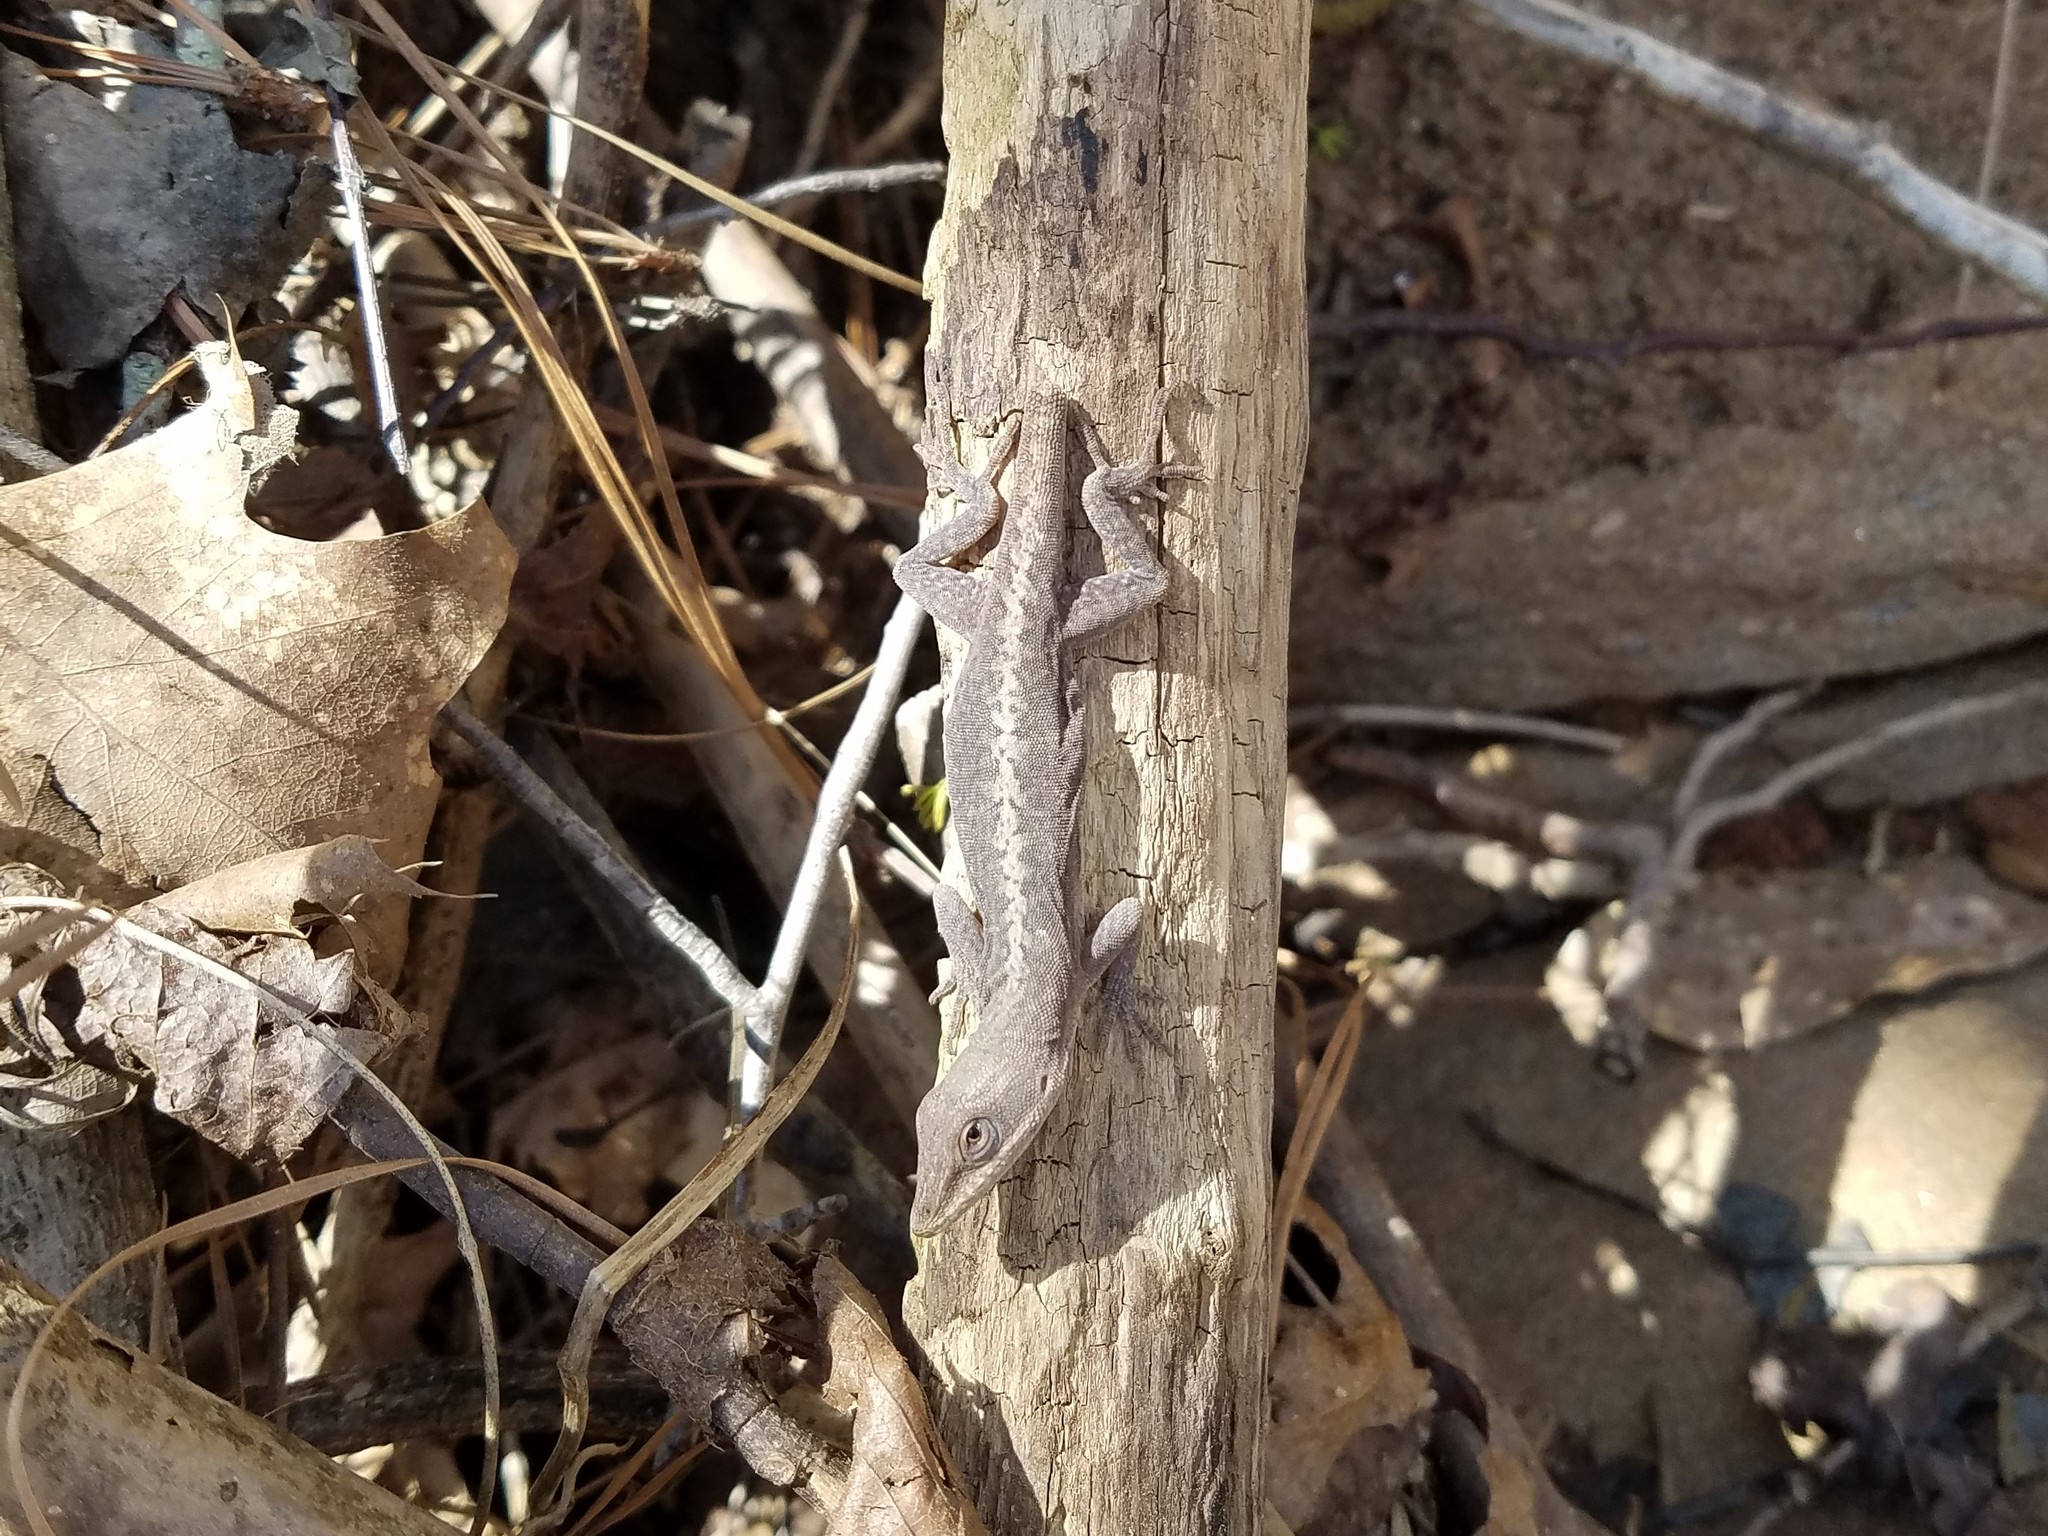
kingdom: Animalia
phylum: Chordata
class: Squamata
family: Dactyloidae
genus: Anolis
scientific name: Anolis carolinensis
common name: Green anole
